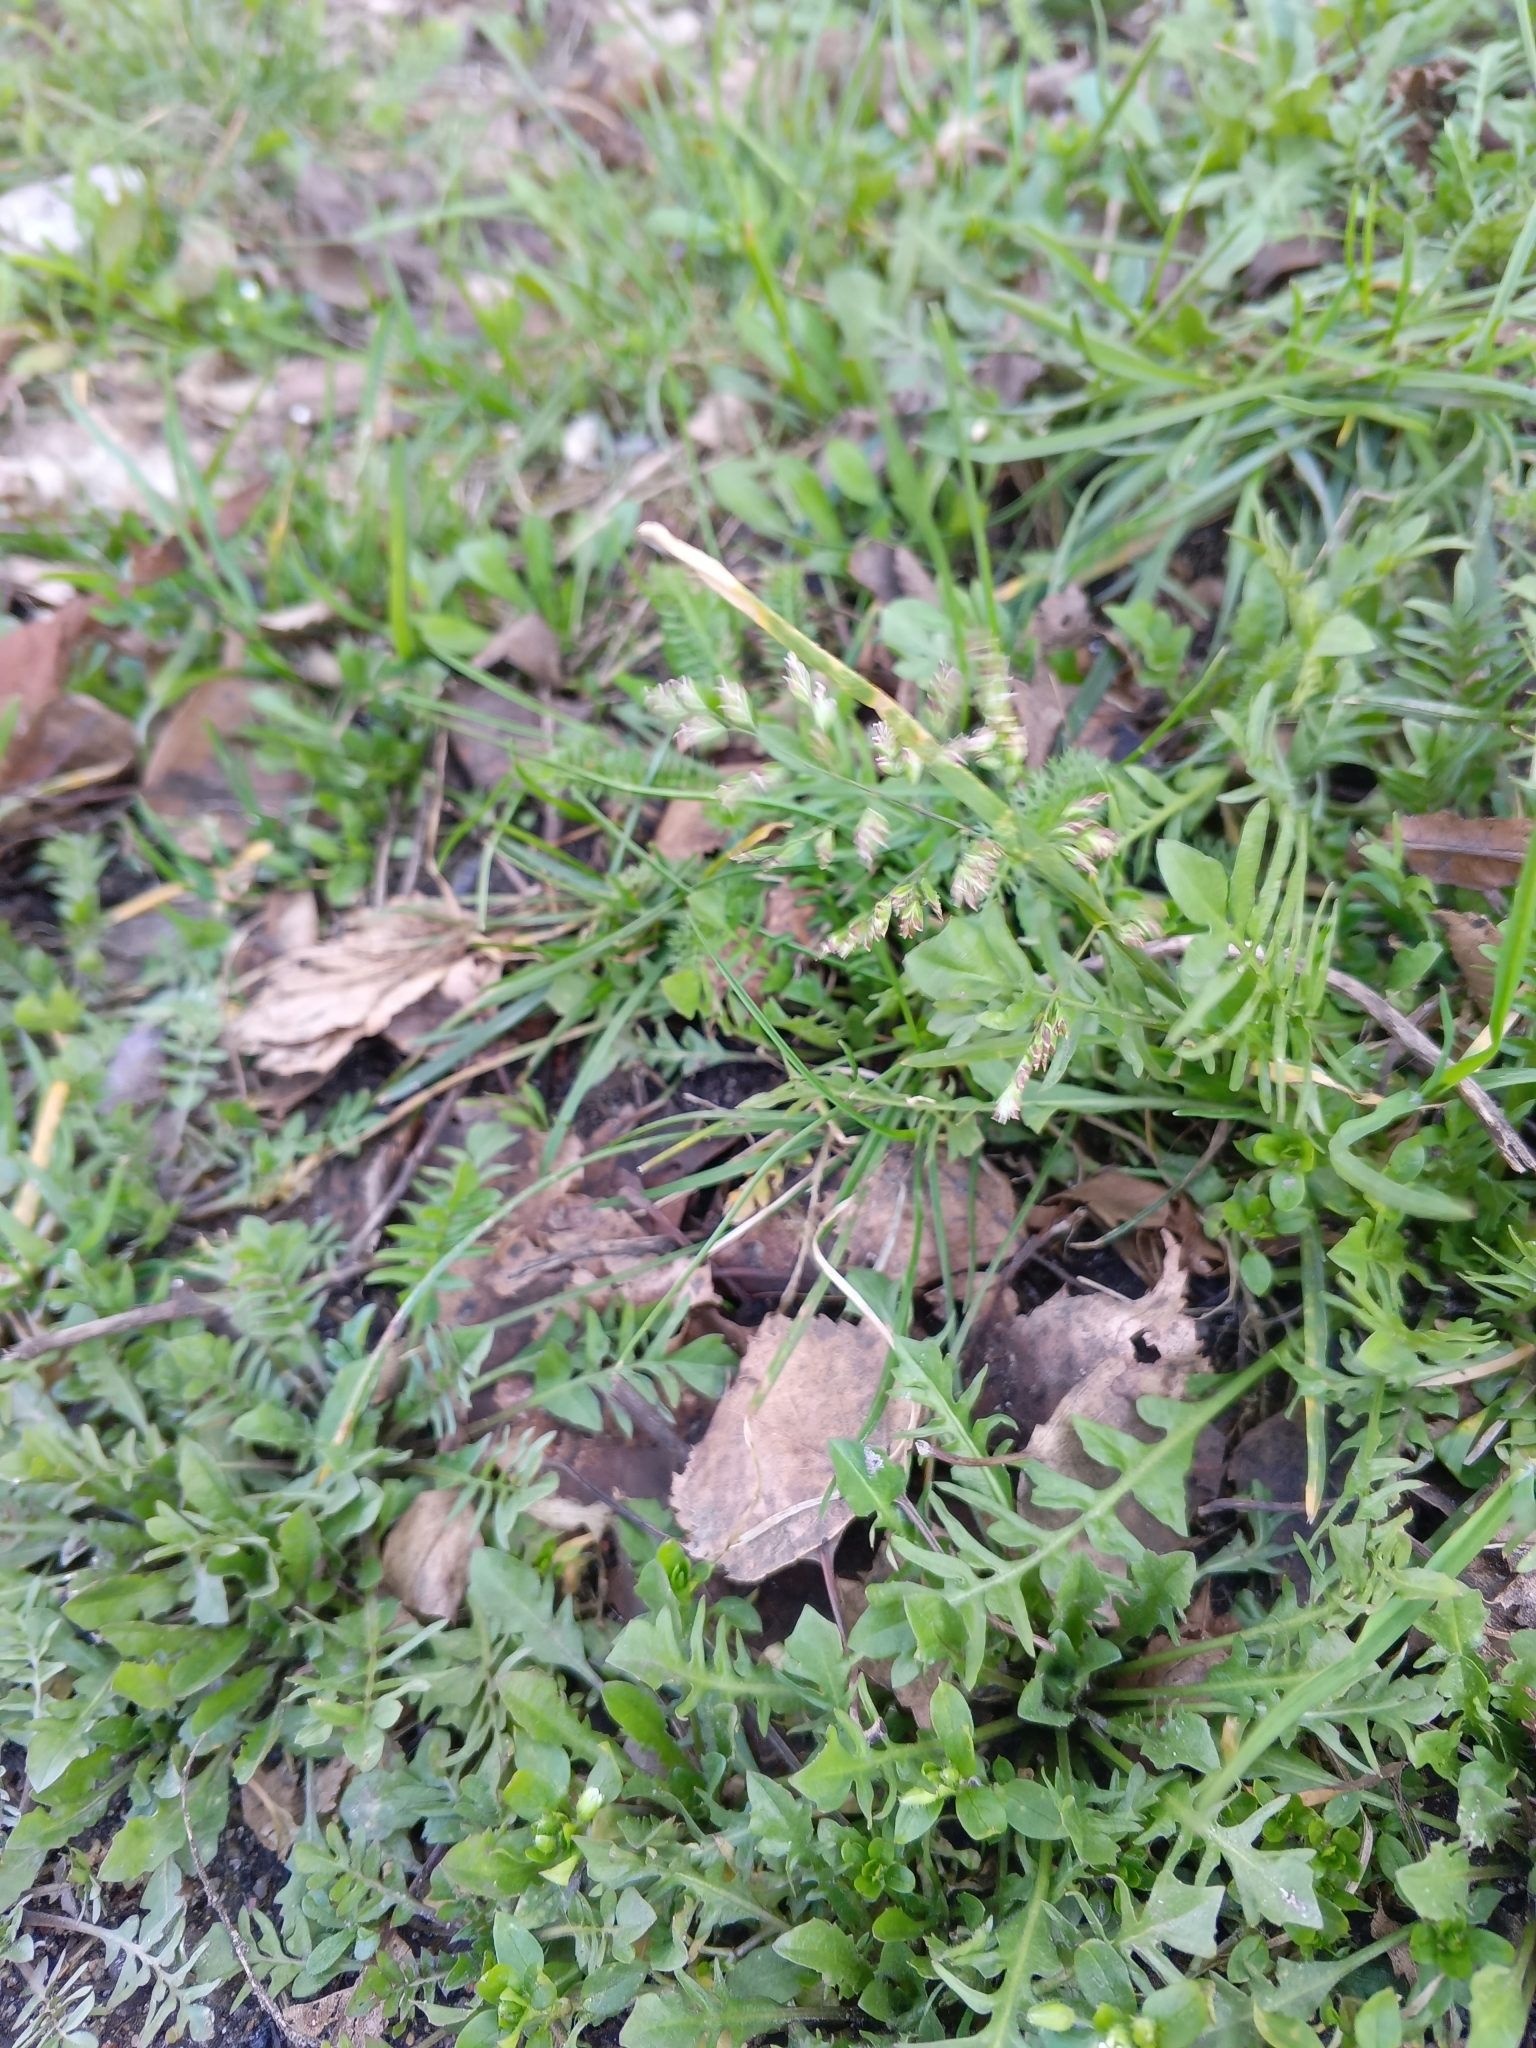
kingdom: Plantae
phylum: Tracheophyta
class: Liliopsida
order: Poales
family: Poaceae
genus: Poa
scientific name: Poa annua
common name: Annual bluegrass
